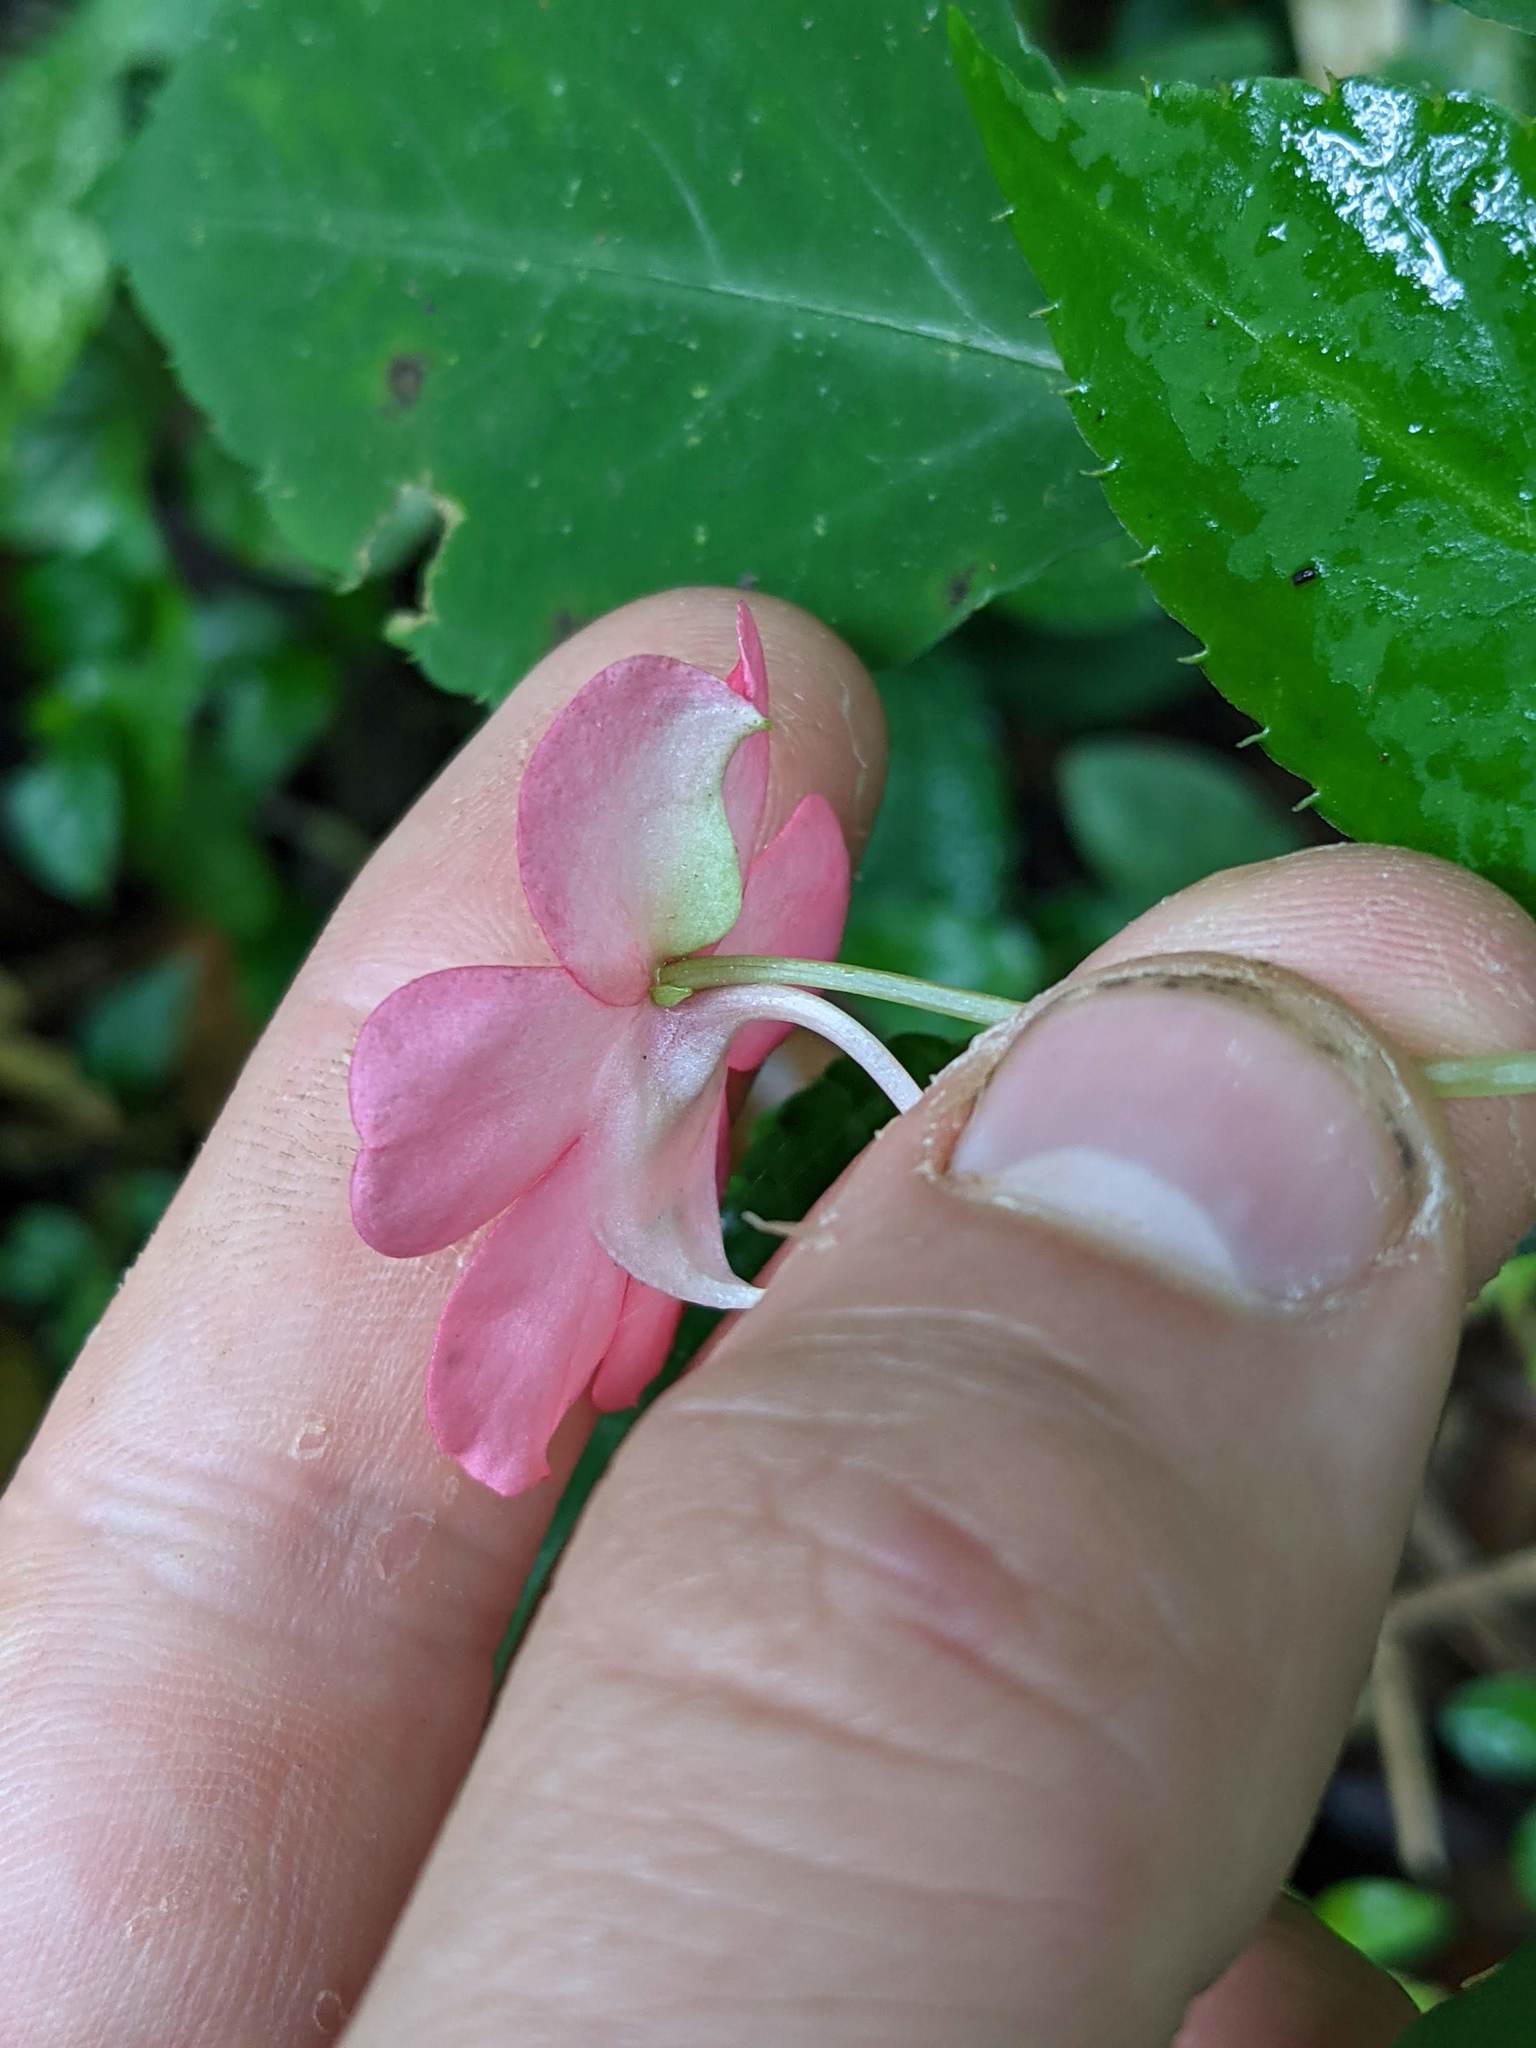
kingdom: Plantae
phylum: Tracheophyta
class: Magnoliopsida
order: Ericales
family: Balsaminaceae
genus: Impatiens
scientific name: Impatiens walleriana
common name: Buzzy lizzy
